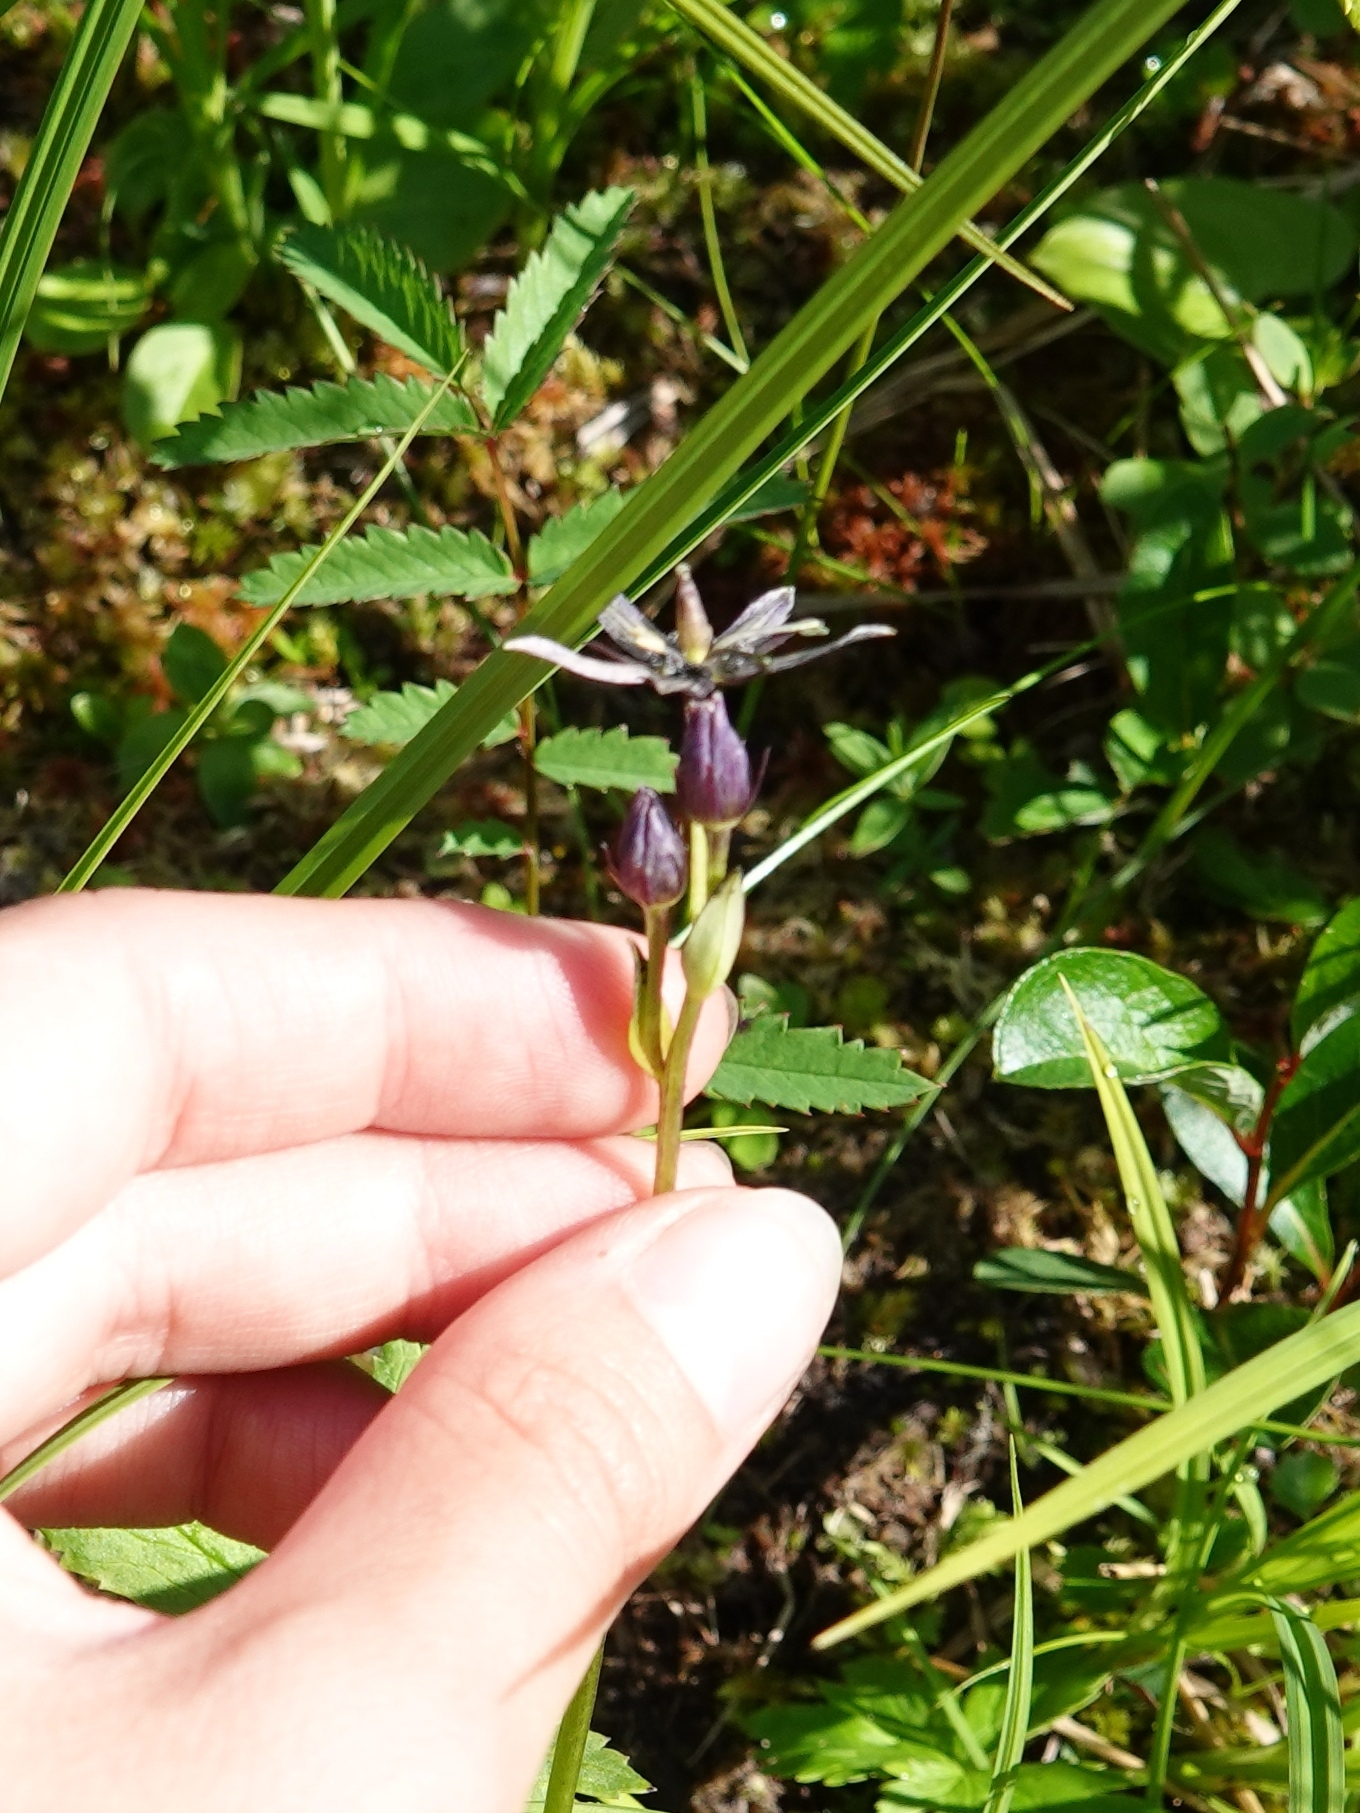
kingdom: Plantae
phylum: Tracheophyta
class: Magnoliopsida
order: Gentianales
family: Gentianaceae
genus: Swertia
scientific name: Swertia obtusa
